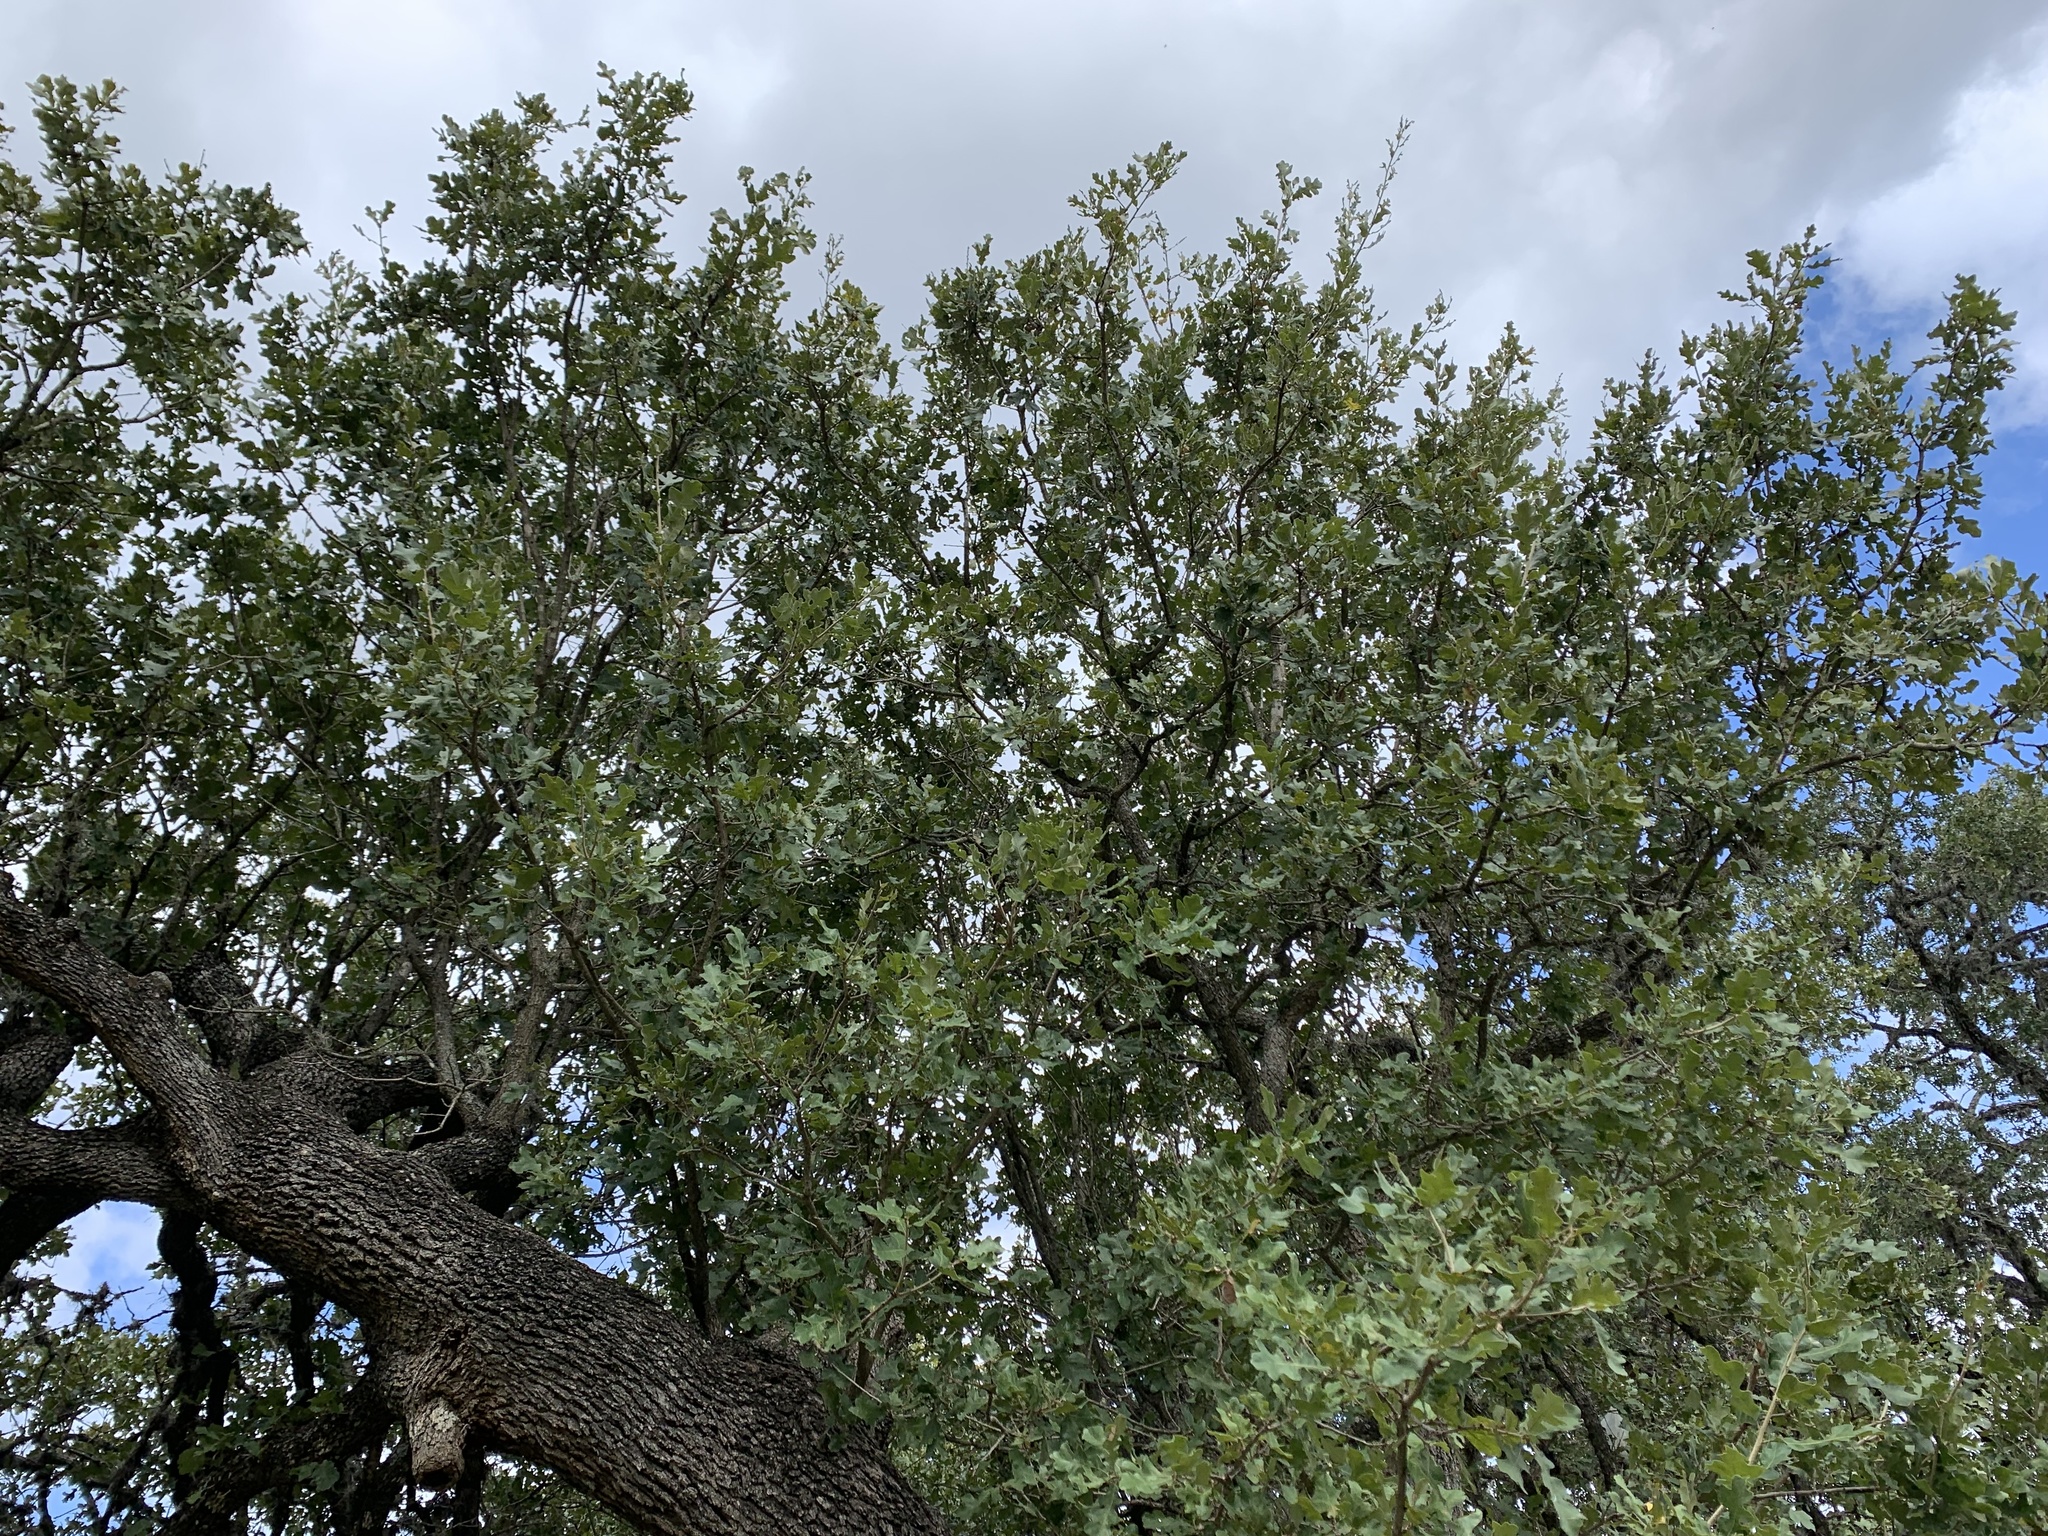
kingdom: Plantae
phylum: Tracheophyta
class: Magnoliopsida
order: Fagales
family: Fagaceae
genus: Quercus
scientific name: Quercus stellata
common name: Post oak
